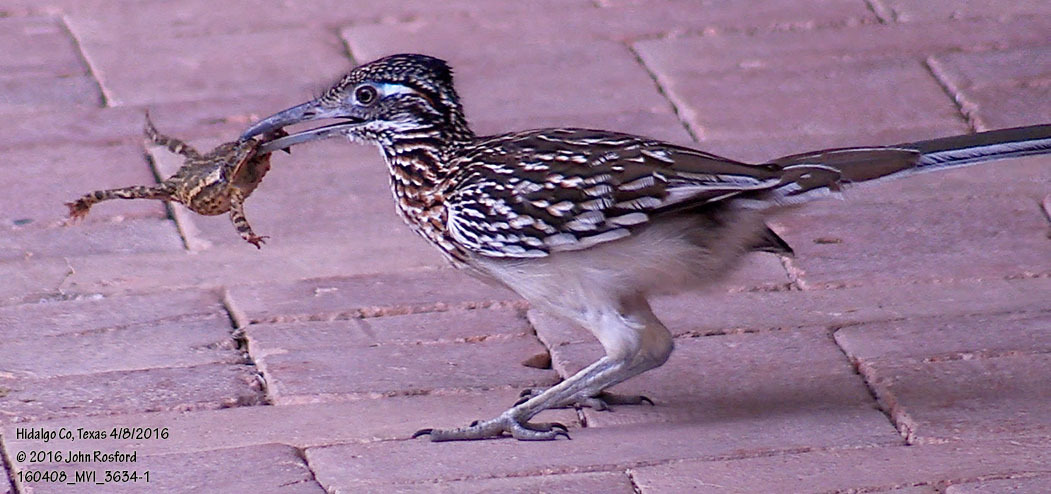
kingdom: Animalia
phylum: Chordata
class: Aves
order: Cuculiformes
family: Cuculidae
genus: Geococcyx
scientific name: Geococcyx californianus
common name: Greater roadrunner
